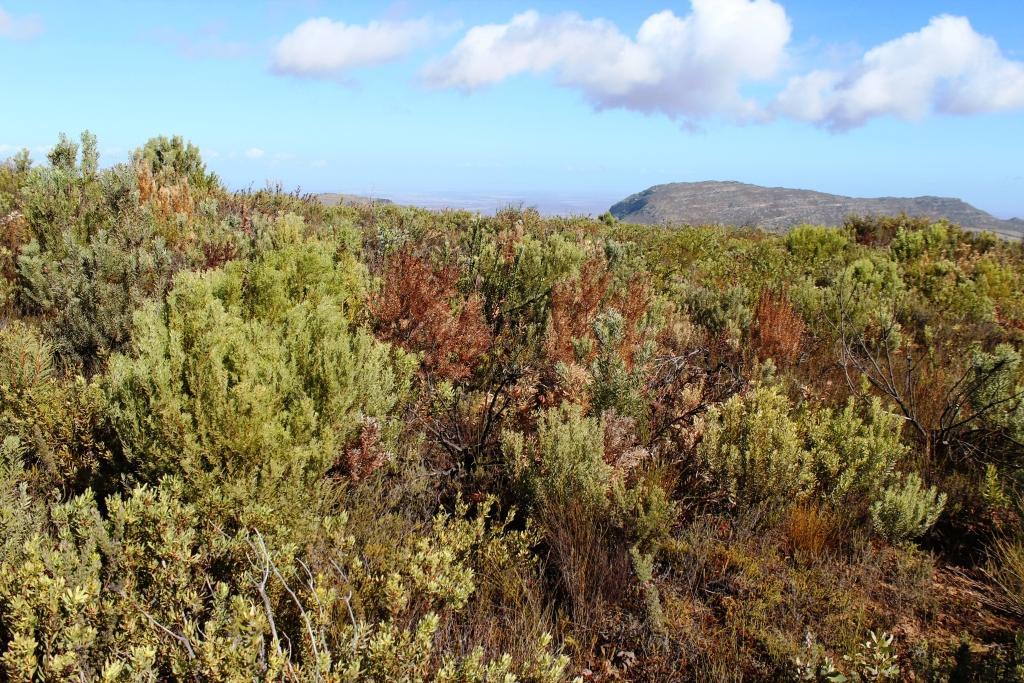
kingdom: Plantae
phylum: Tracheophyta
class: Magnoliopsida
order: Proteales
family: Proteaceae
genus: Leucadendron
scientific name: Leucadendron rubrum
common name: Spinning top
